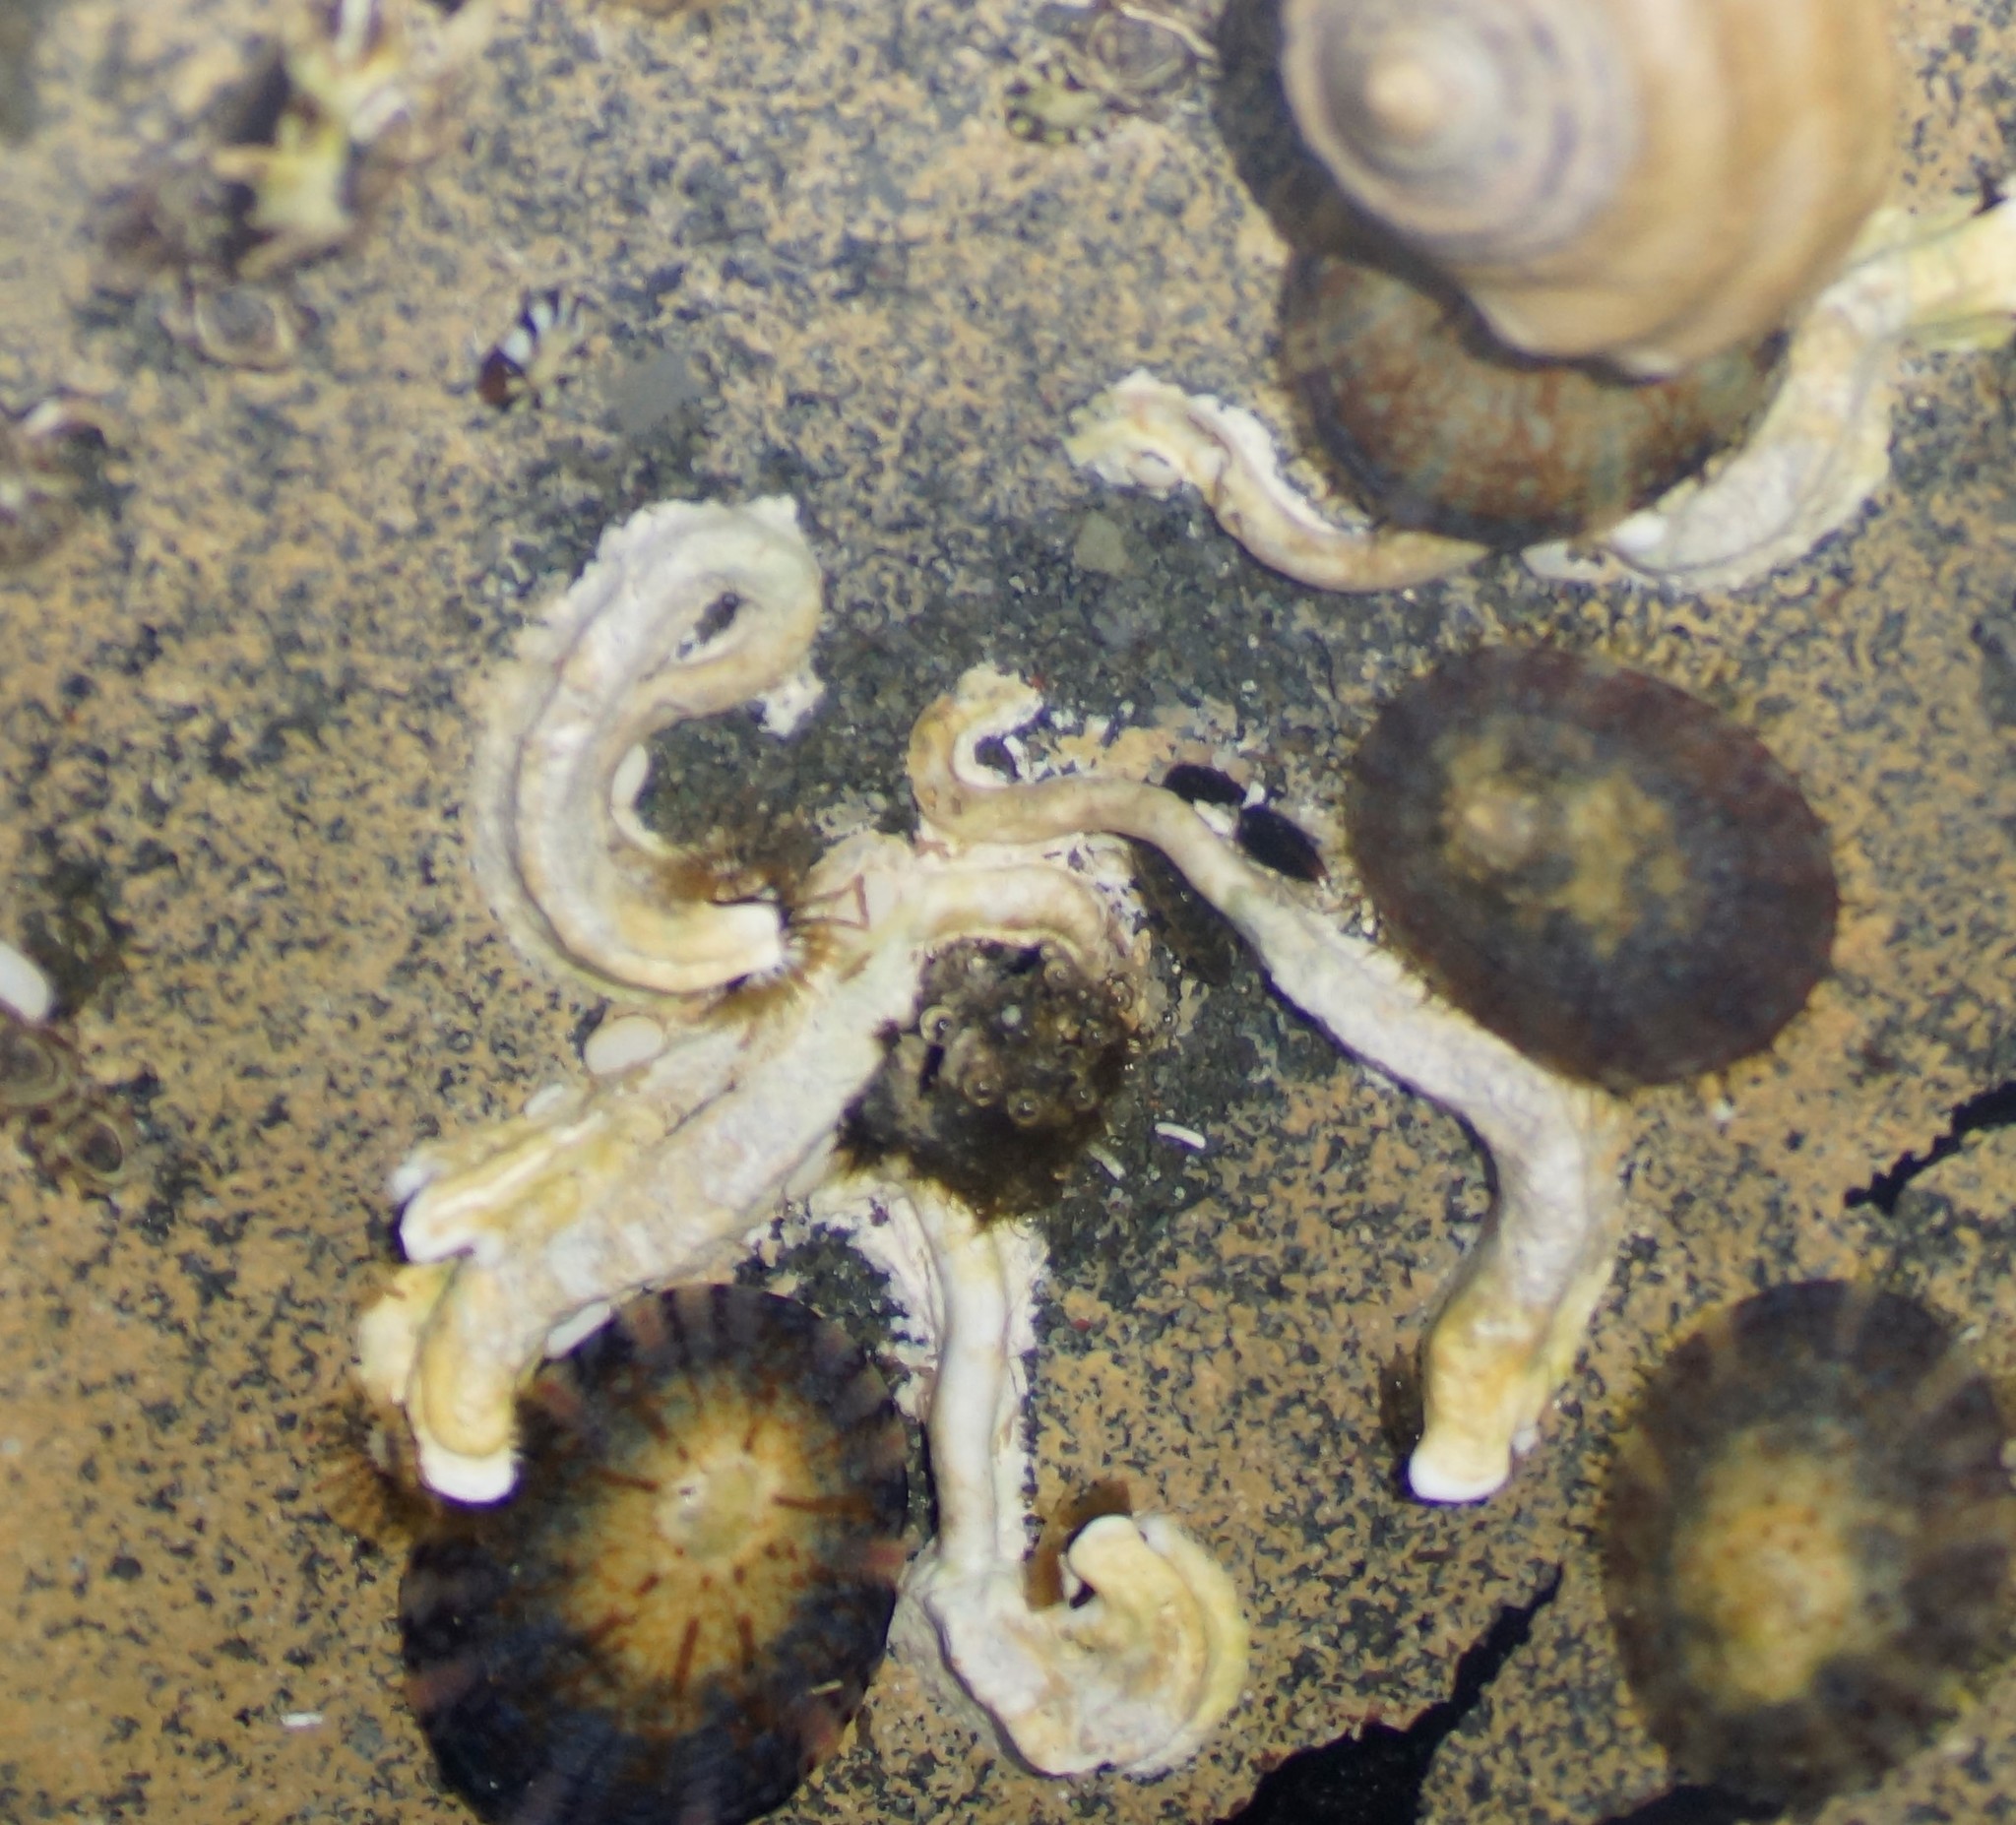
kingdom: Animalia
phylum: Annelida
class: Polychaeta
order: Sabellida
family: Serpulidae
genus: Galeolaria
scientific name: Galeolaria caespitosa
